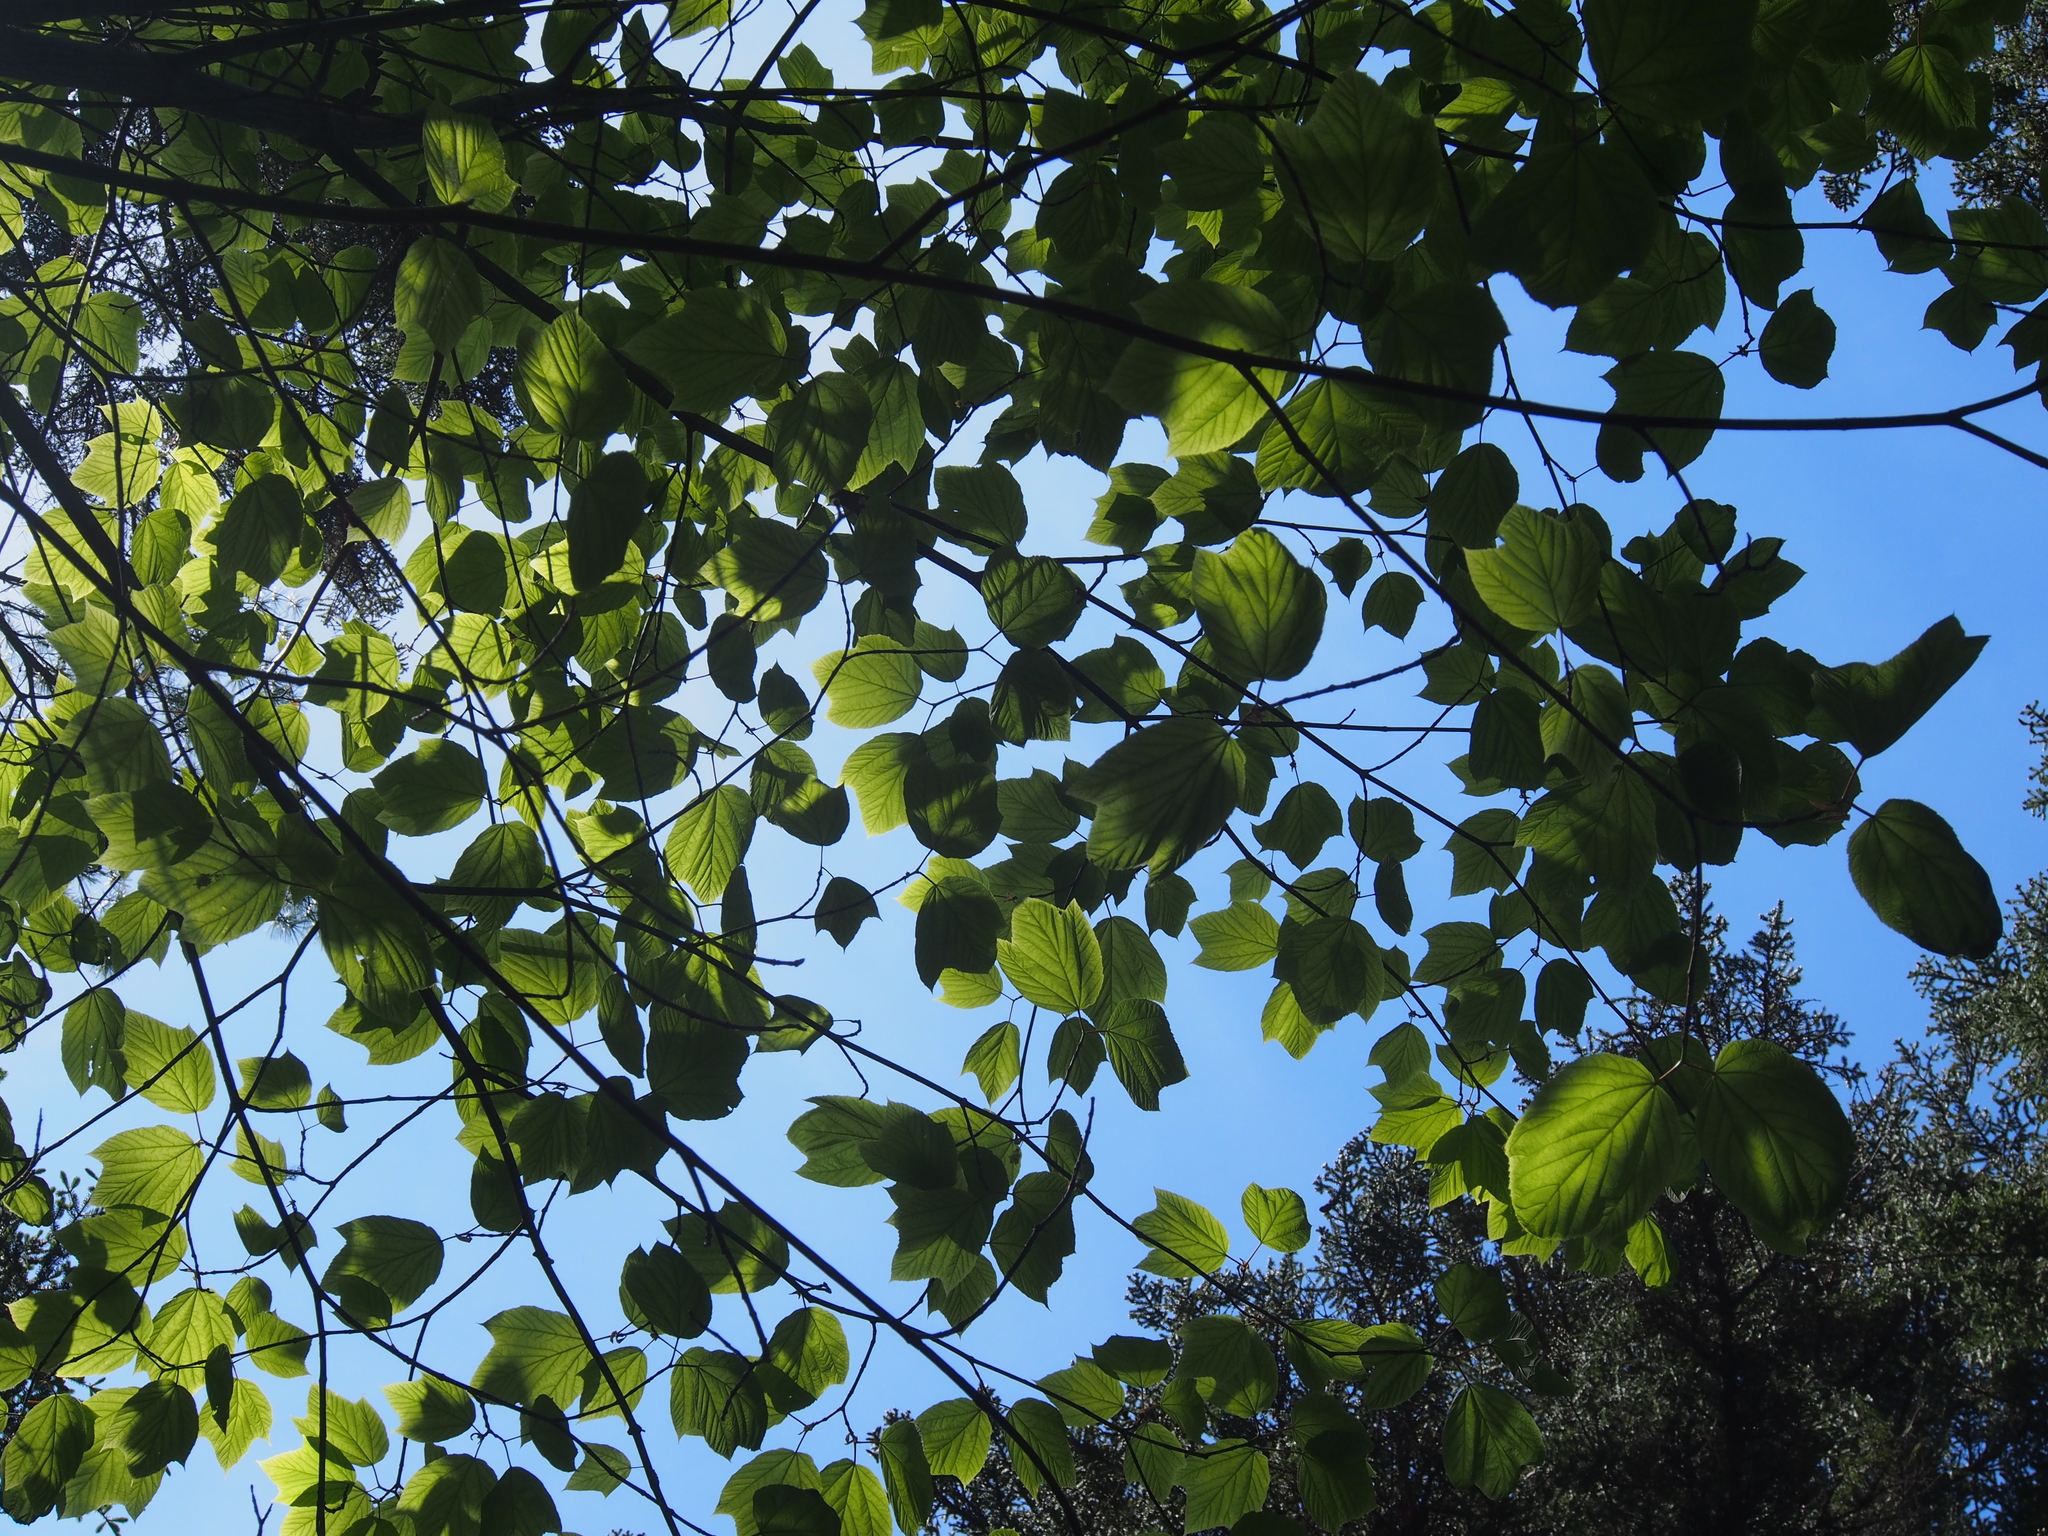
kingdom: Plantae
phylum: Tracheophyta
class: Magnoliopsida
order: Sapindales
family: Sapindaceae
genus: Acer
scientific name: Acer pensylvanicum
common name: Moosewood
